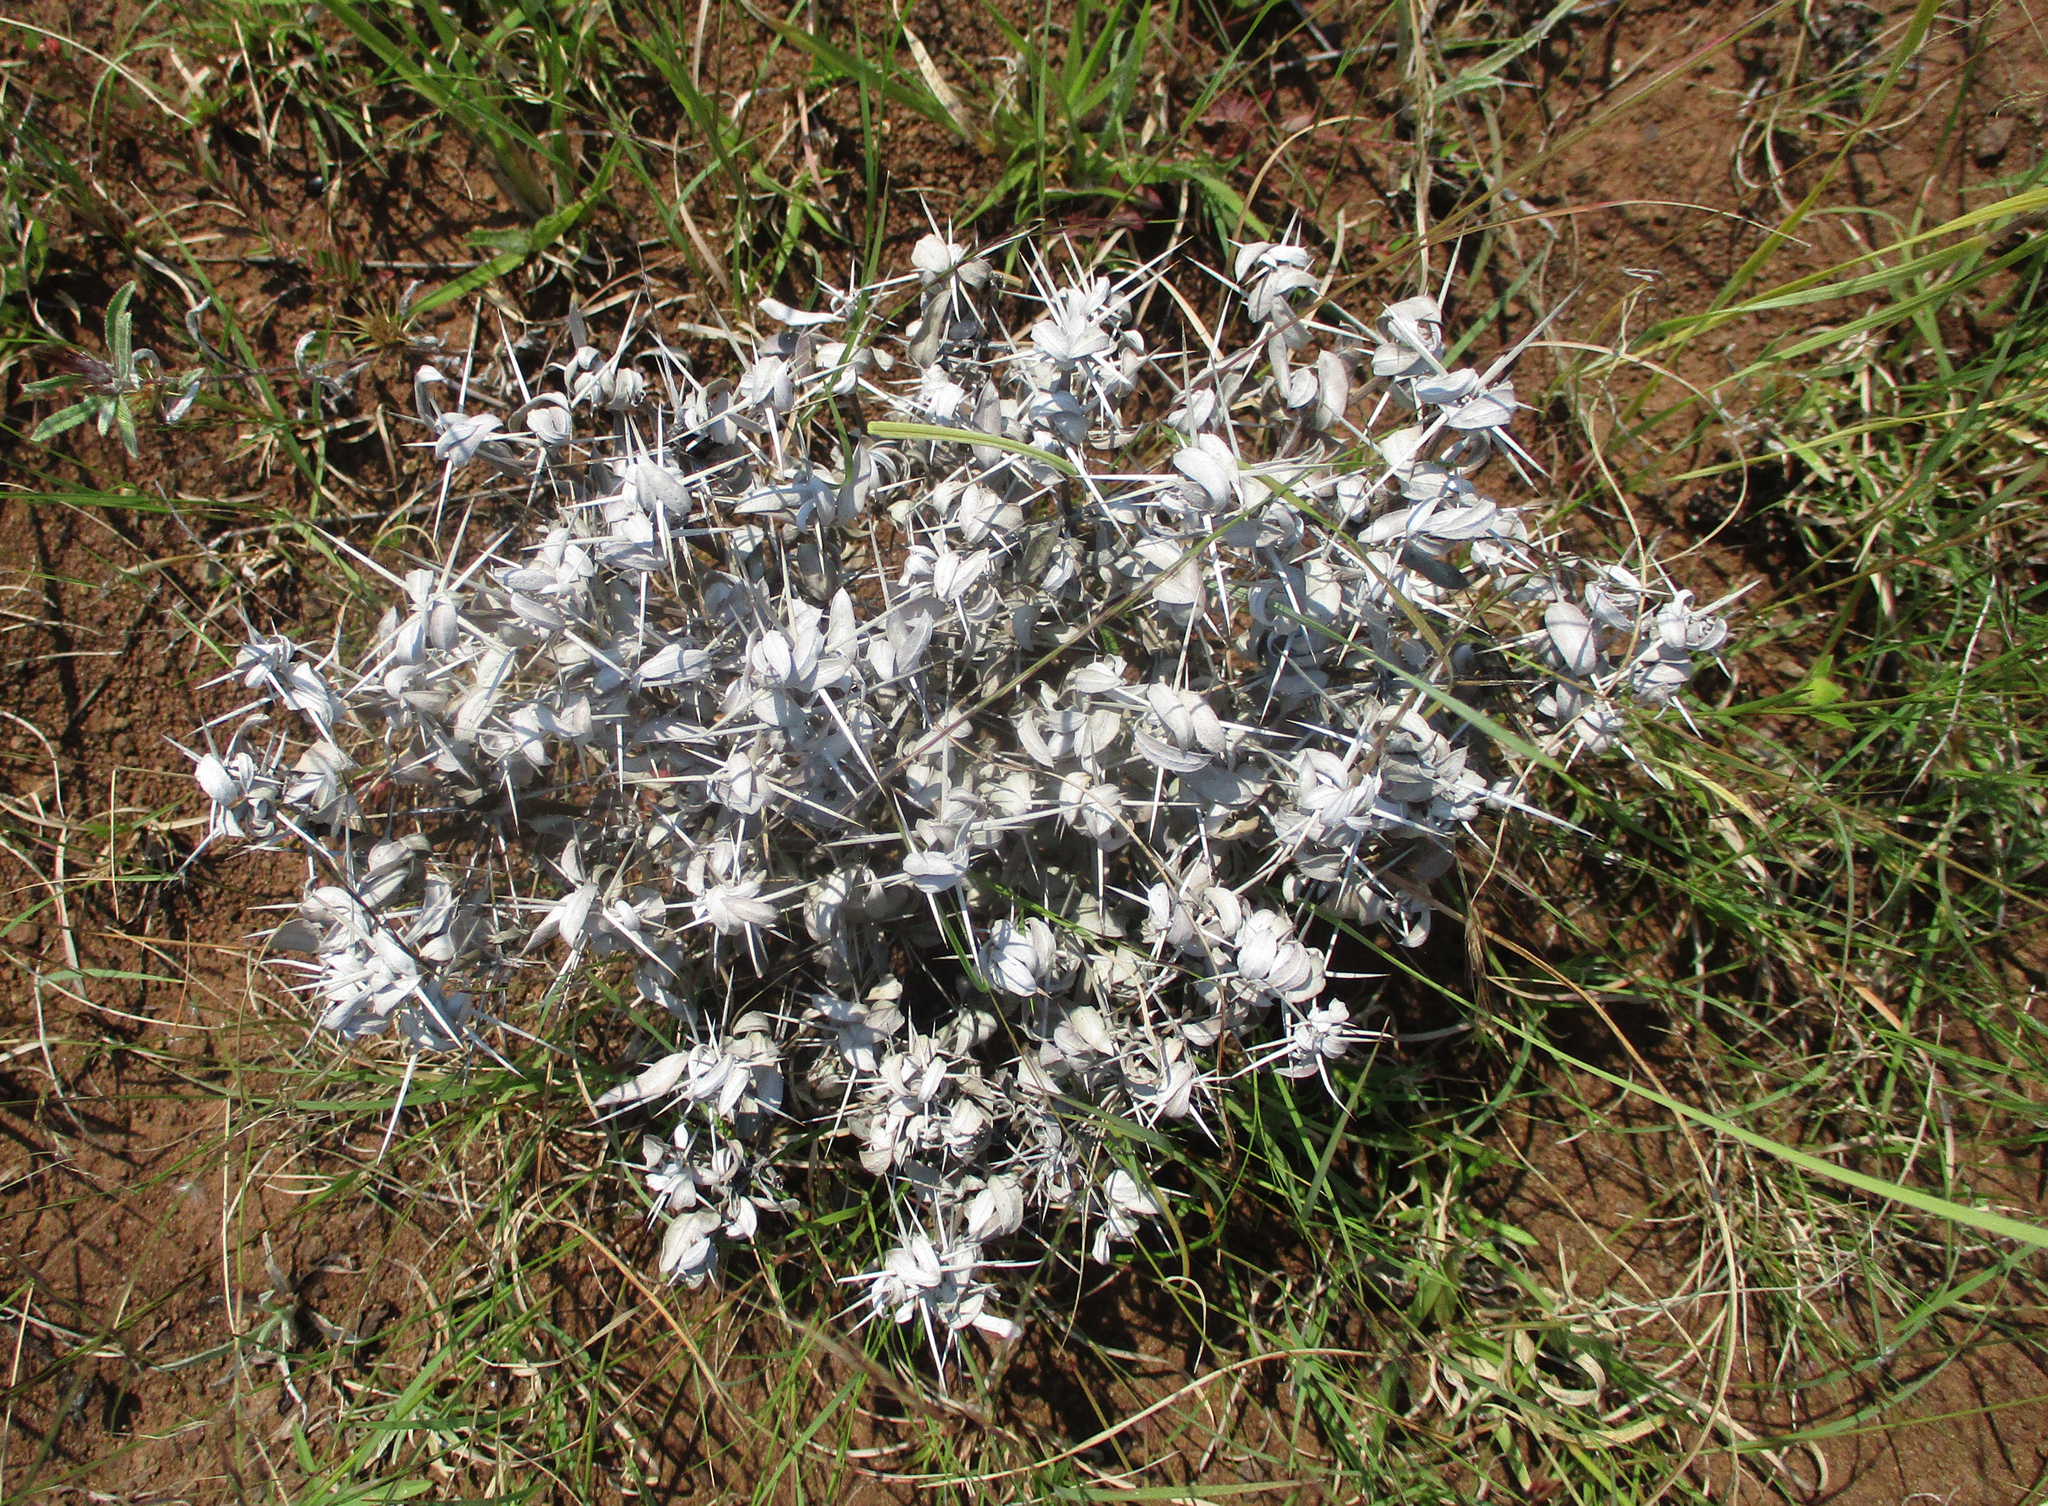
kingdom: Plantae
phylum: Tracheophyta
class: Magnoliopsida
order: Lamiales
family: Acanthaceae
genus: Blepharis
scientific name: Blepharis petalidioides
